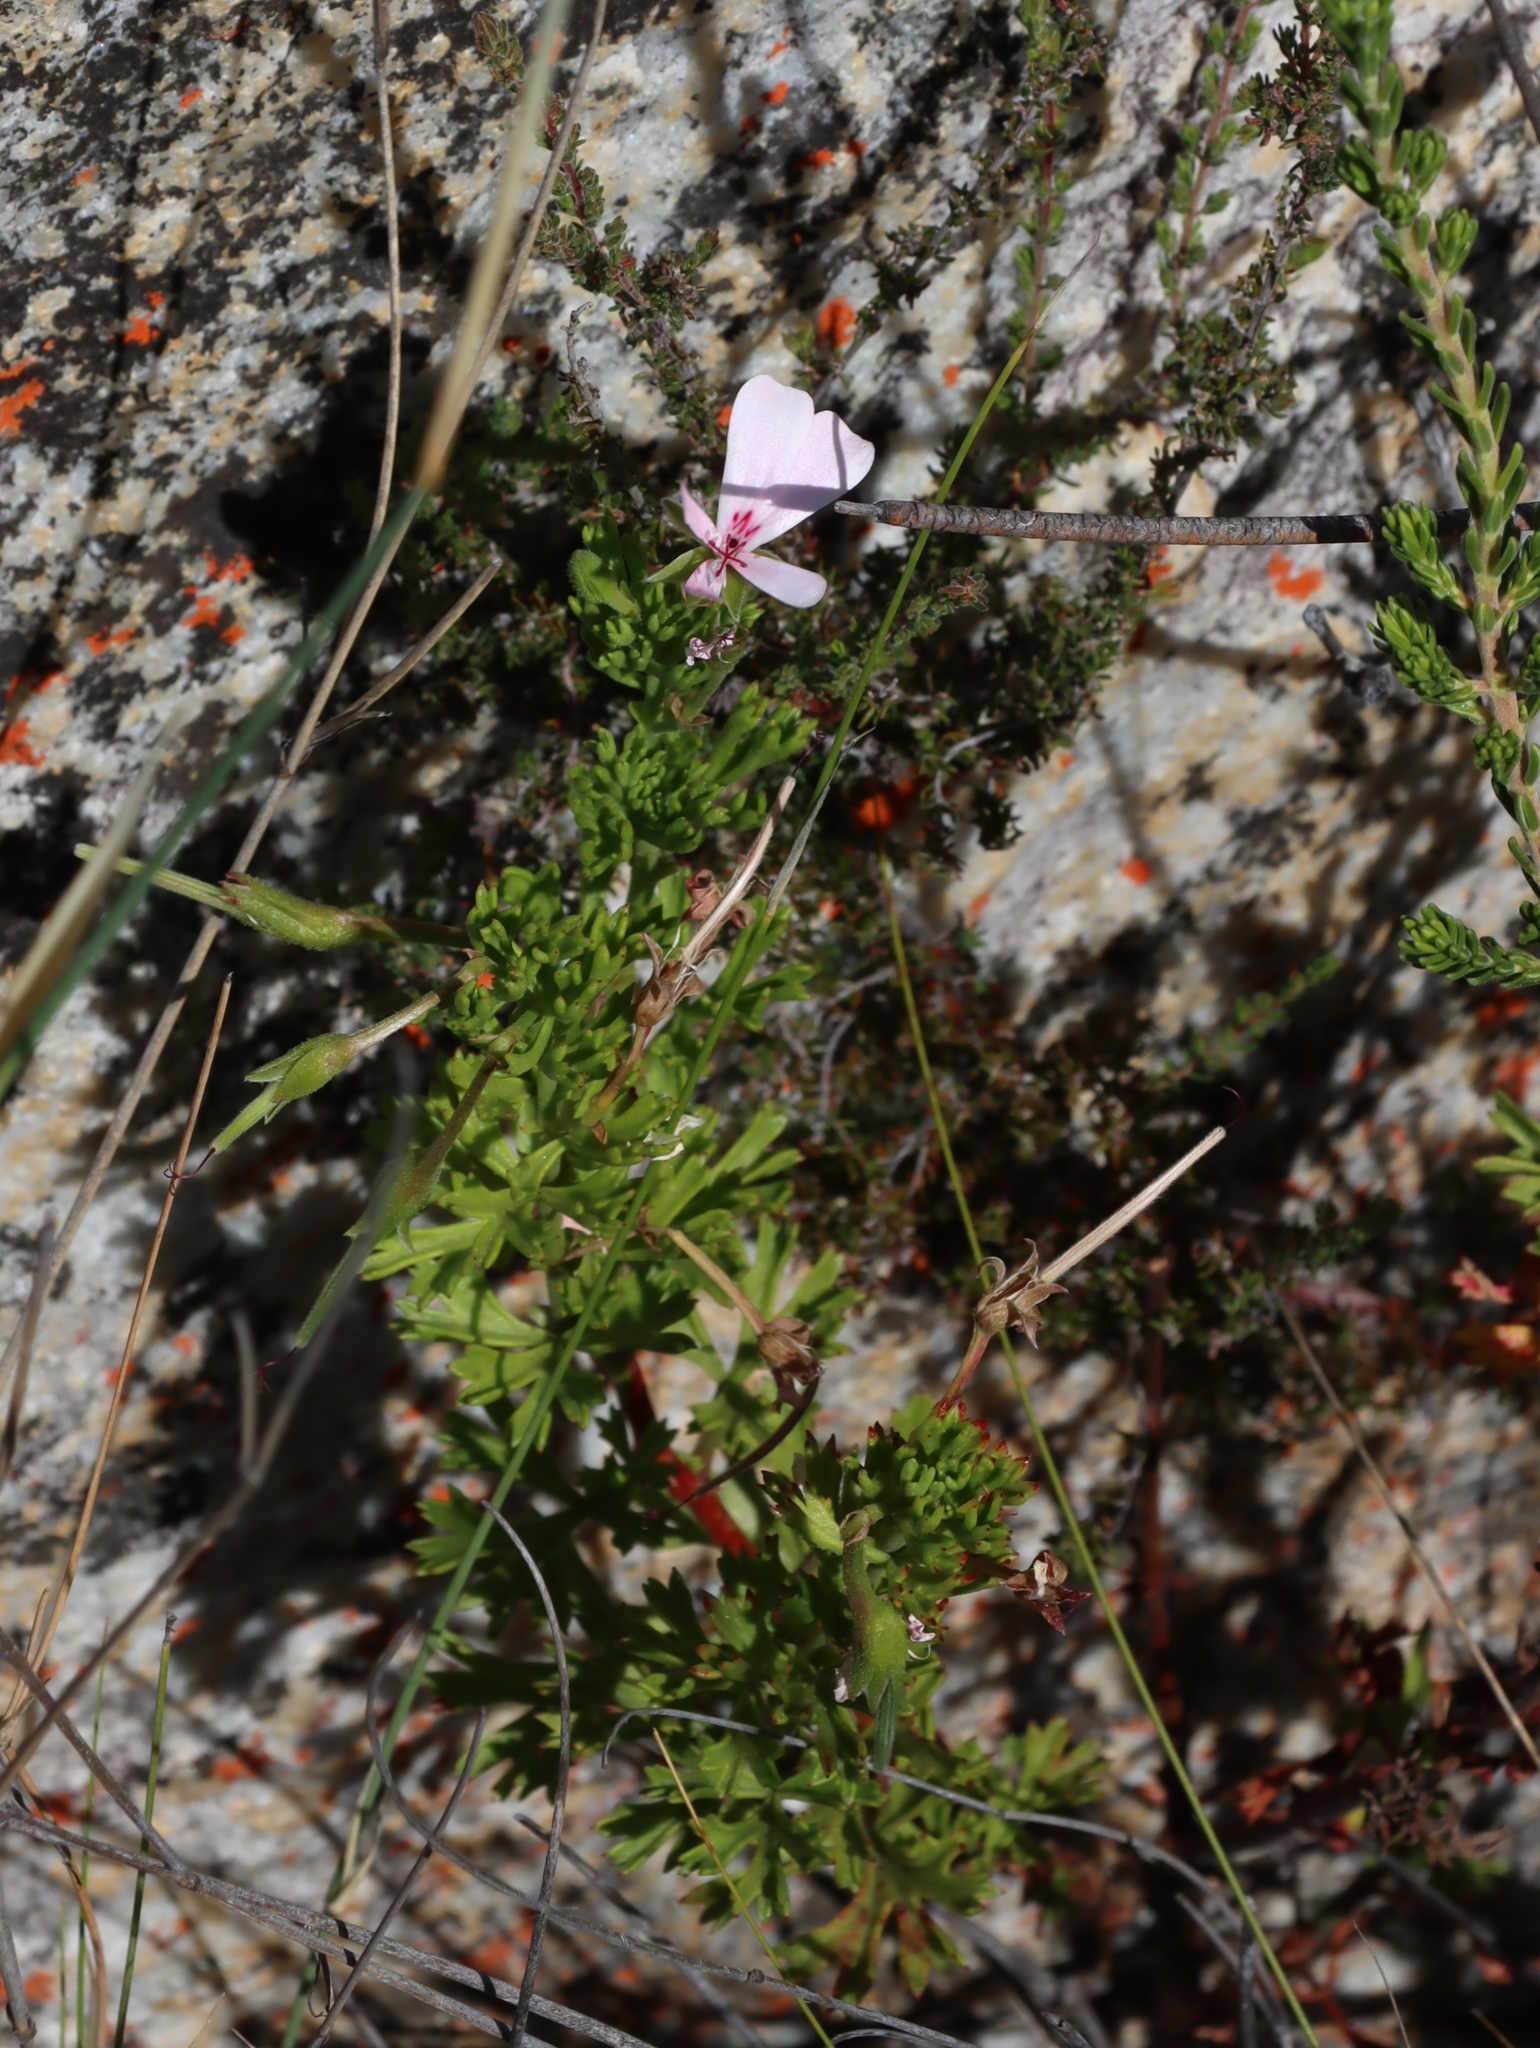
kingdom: Plantae
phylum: Tracheophyta
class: Magnoliopsida
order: Geraniales
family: Geraniaceae
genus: Pelargonium
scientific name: Pelargonium ternatum
